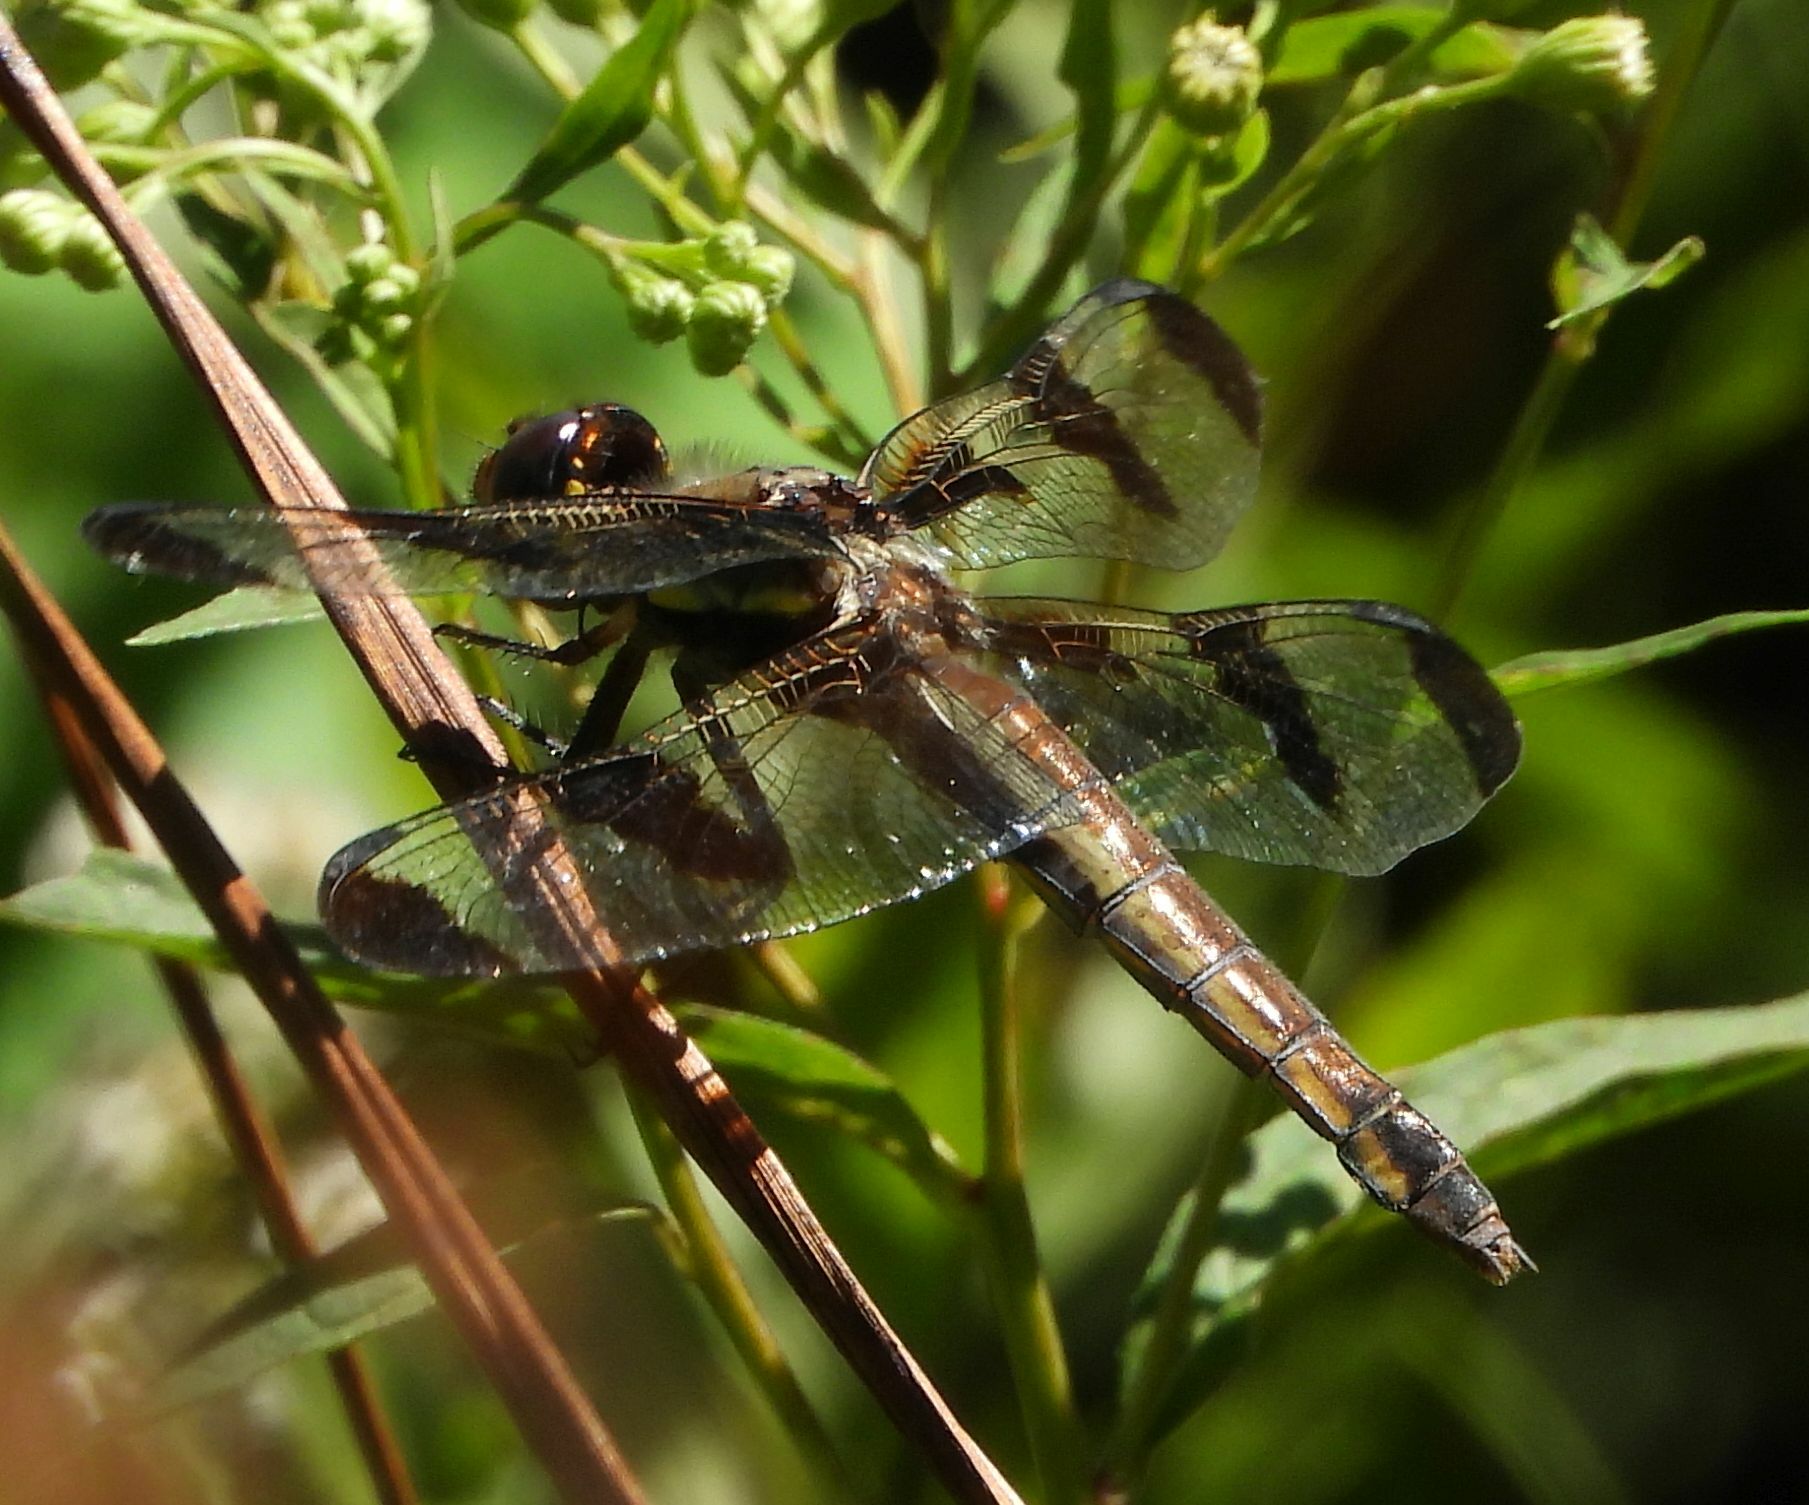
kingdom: Animalia
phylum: Arthropoda
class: Insecta
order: Odonata
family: Libellulidae
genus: Libellula
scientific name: Libellula pulchella
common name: Twelve-spotted skimmer
